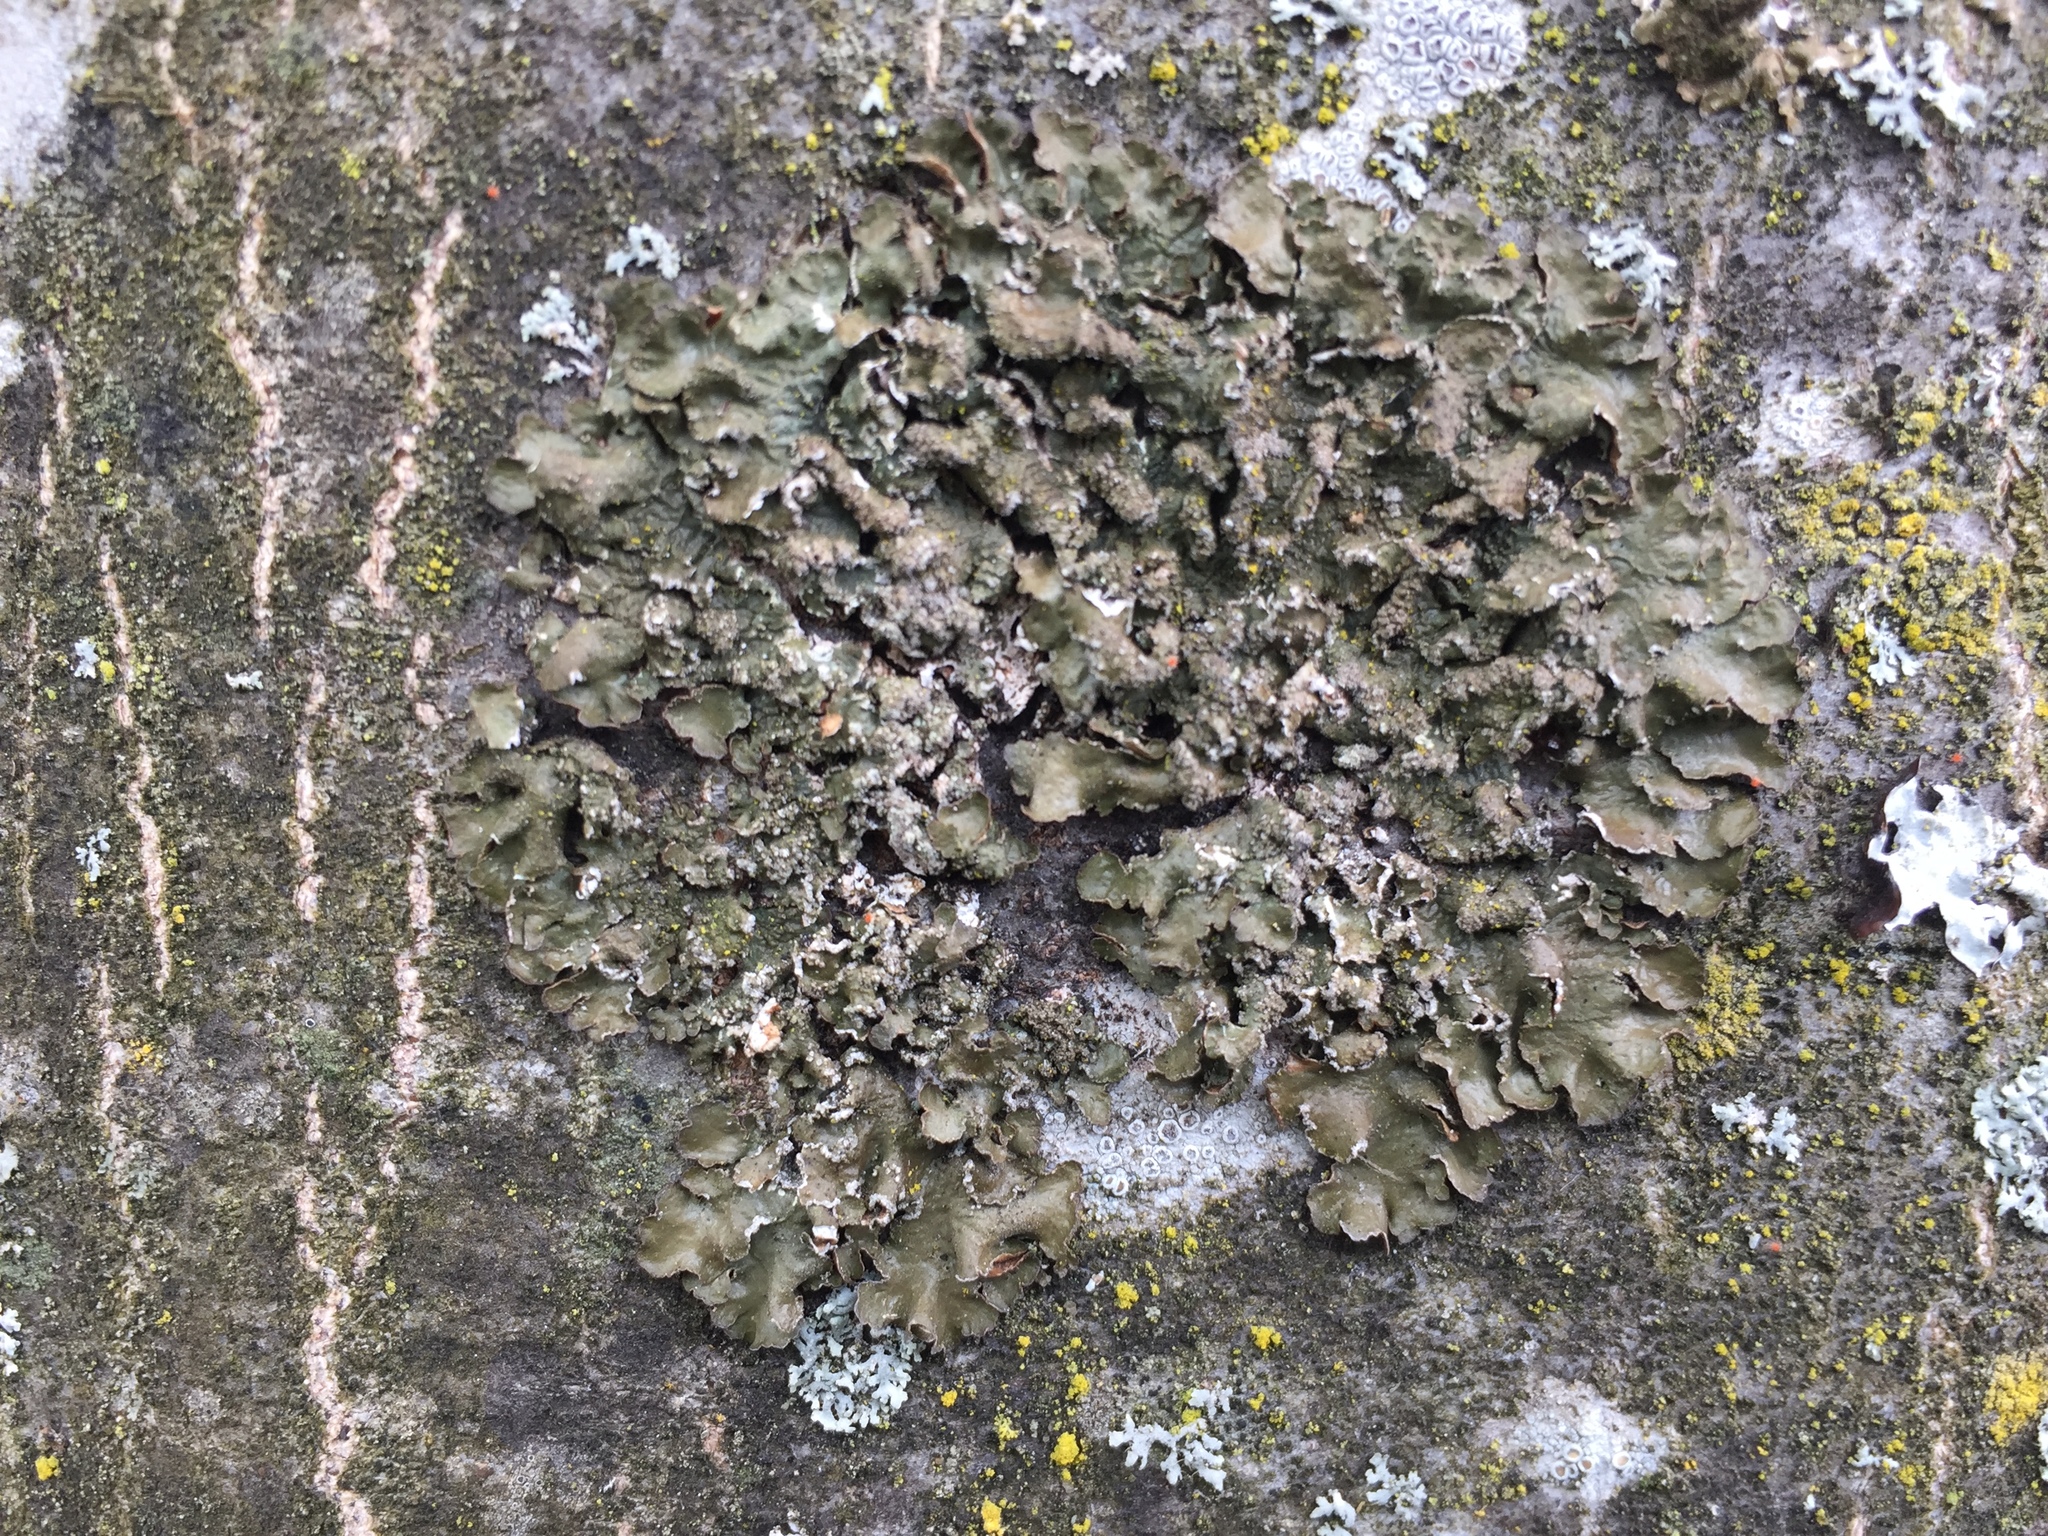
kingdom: Fungi
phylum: Ascomycota
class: Lecanoromycetes
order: Lecanorales
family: Parmeliaceae
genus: Melanelixia
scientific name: Melanelixia subargentifera
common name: Whiskered camouflage lichen
